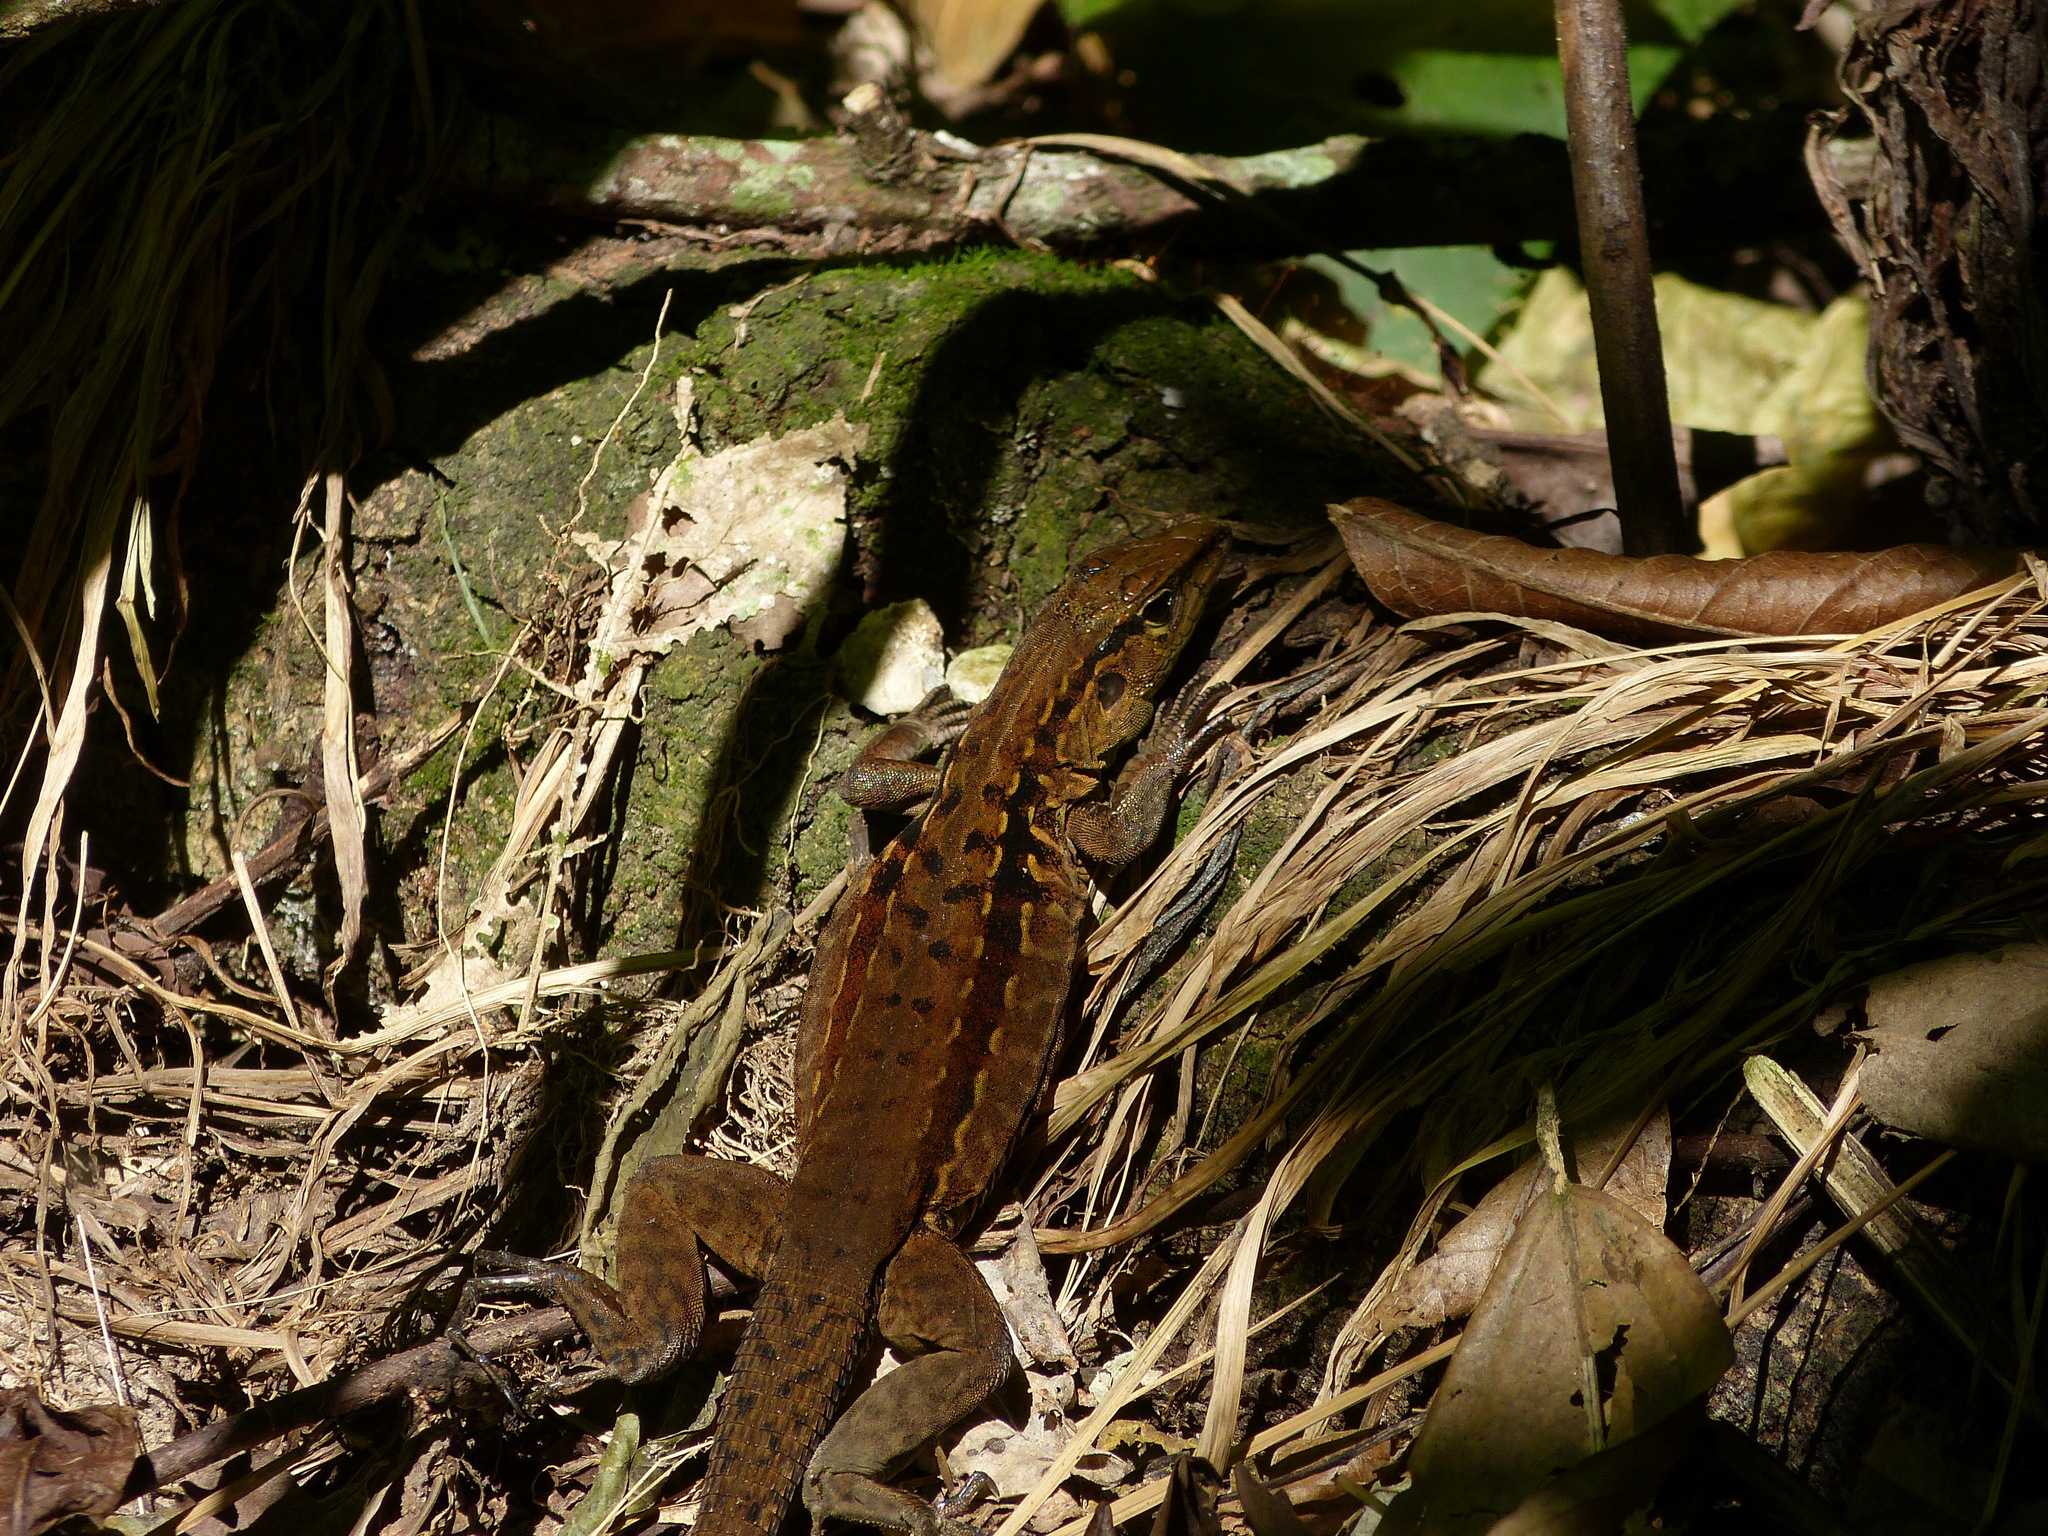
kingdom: Animalia
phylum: Chordata
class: Squamata
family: Teiidae
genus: Holcosus
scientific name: Holcosus festivus
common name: Middle american ameiva
